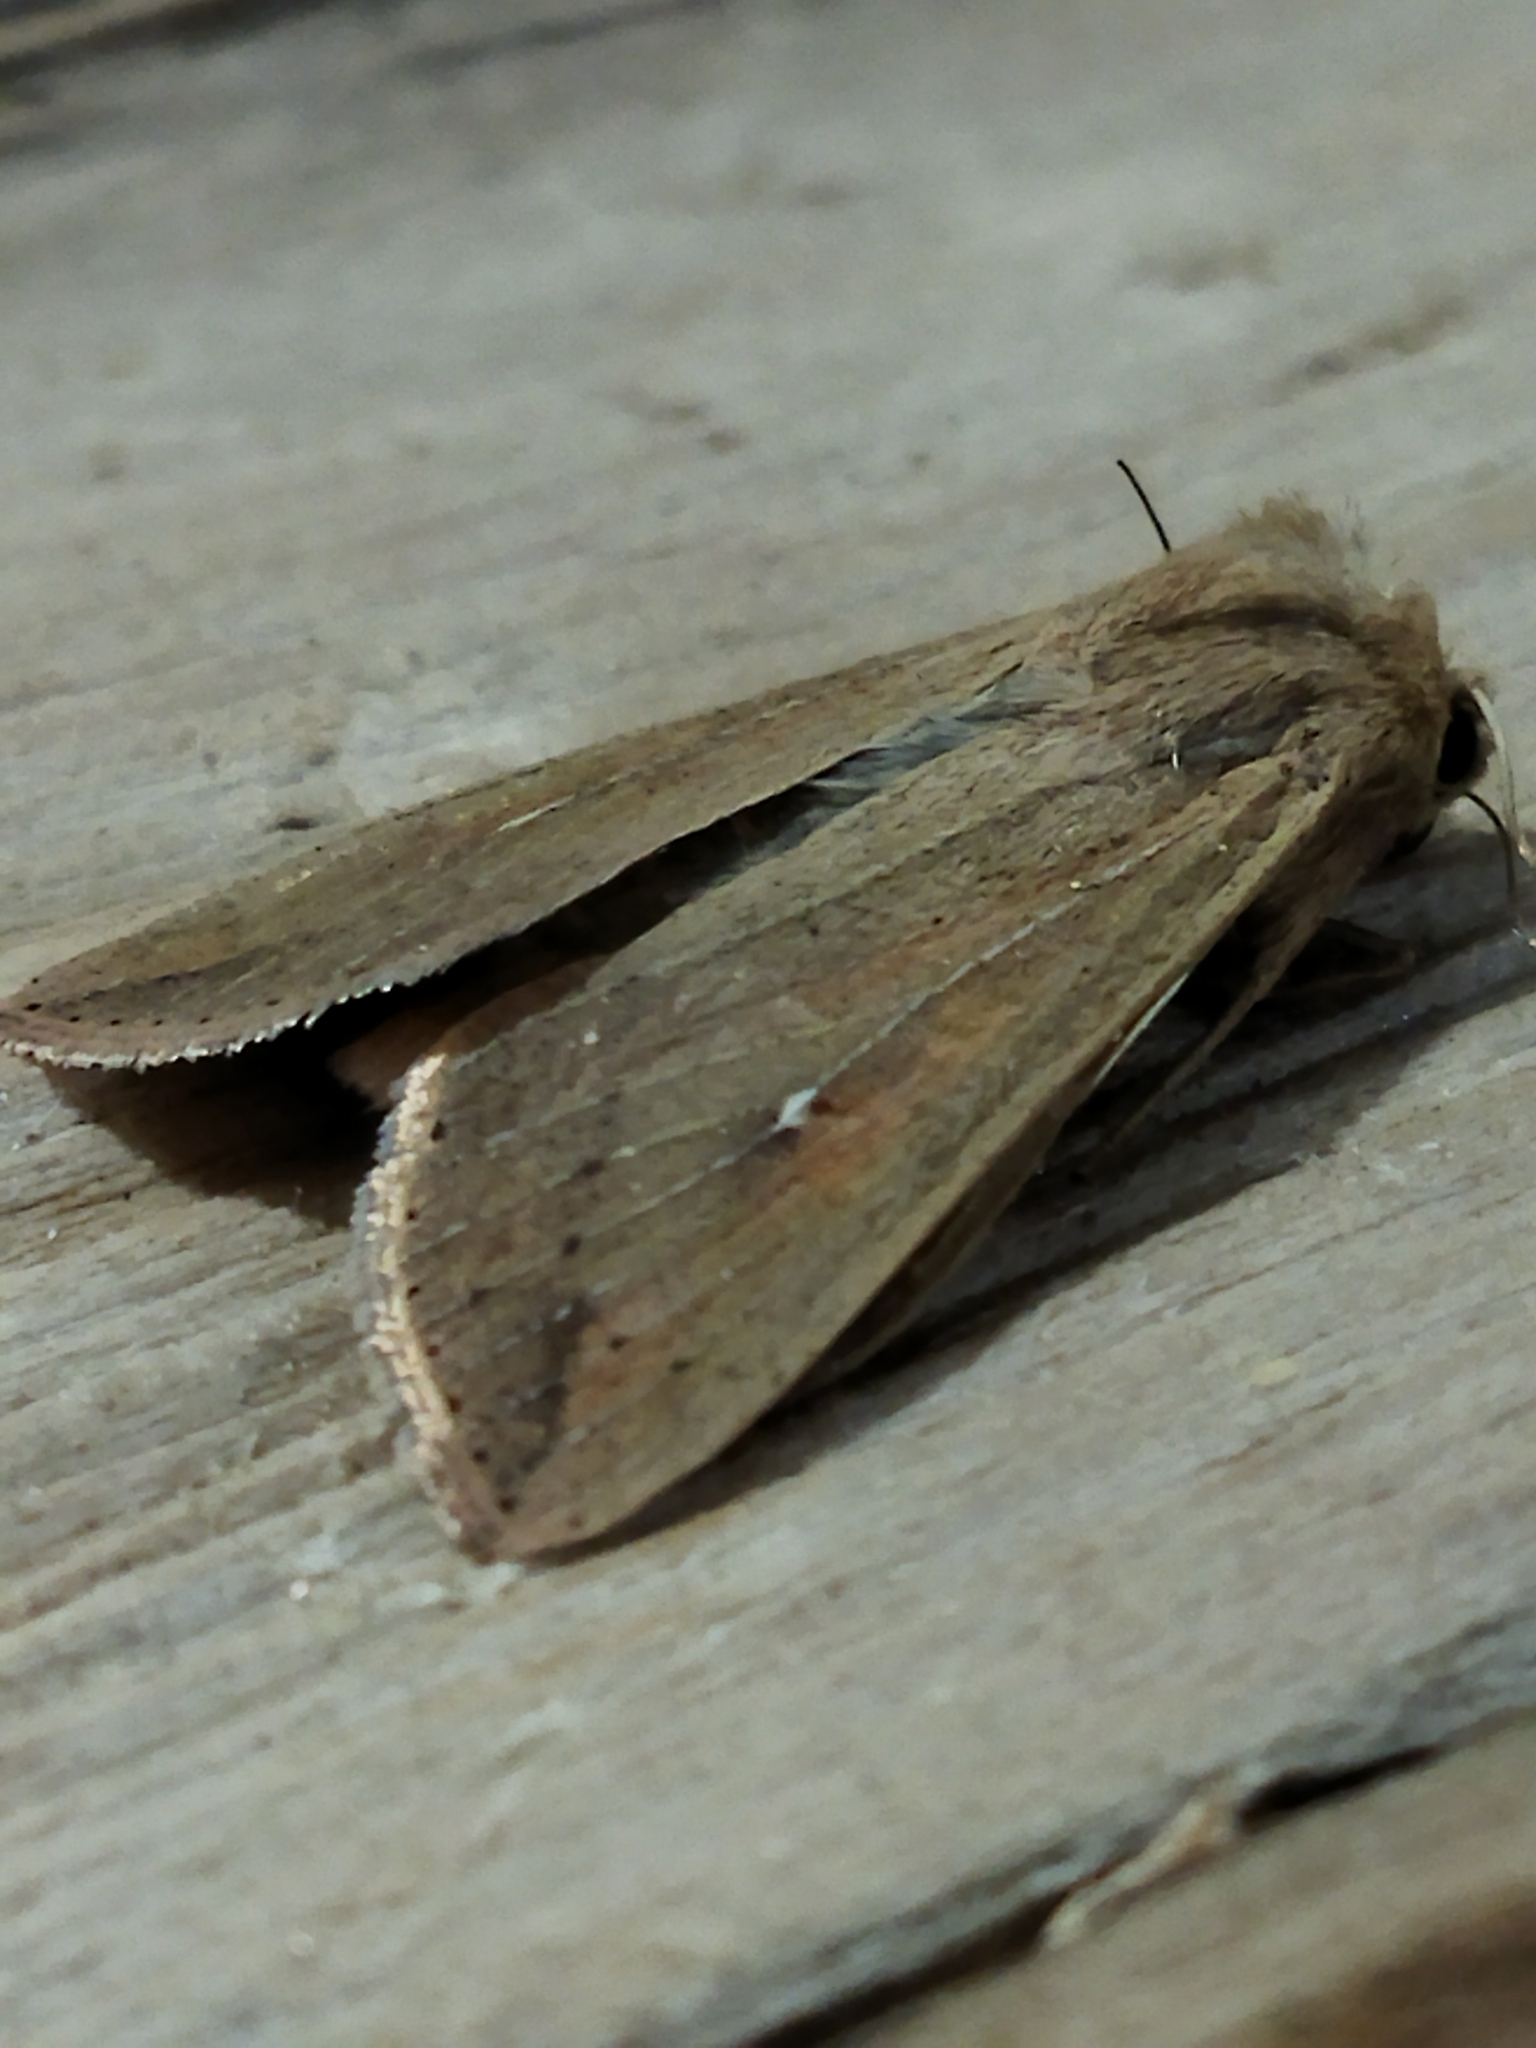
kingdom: Animalia
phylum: Arthropoda
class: Insecta
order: Lepidoptera
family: Noctuidae
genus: Mythimna
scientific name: Mythimna unipuncta
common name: White-speck
